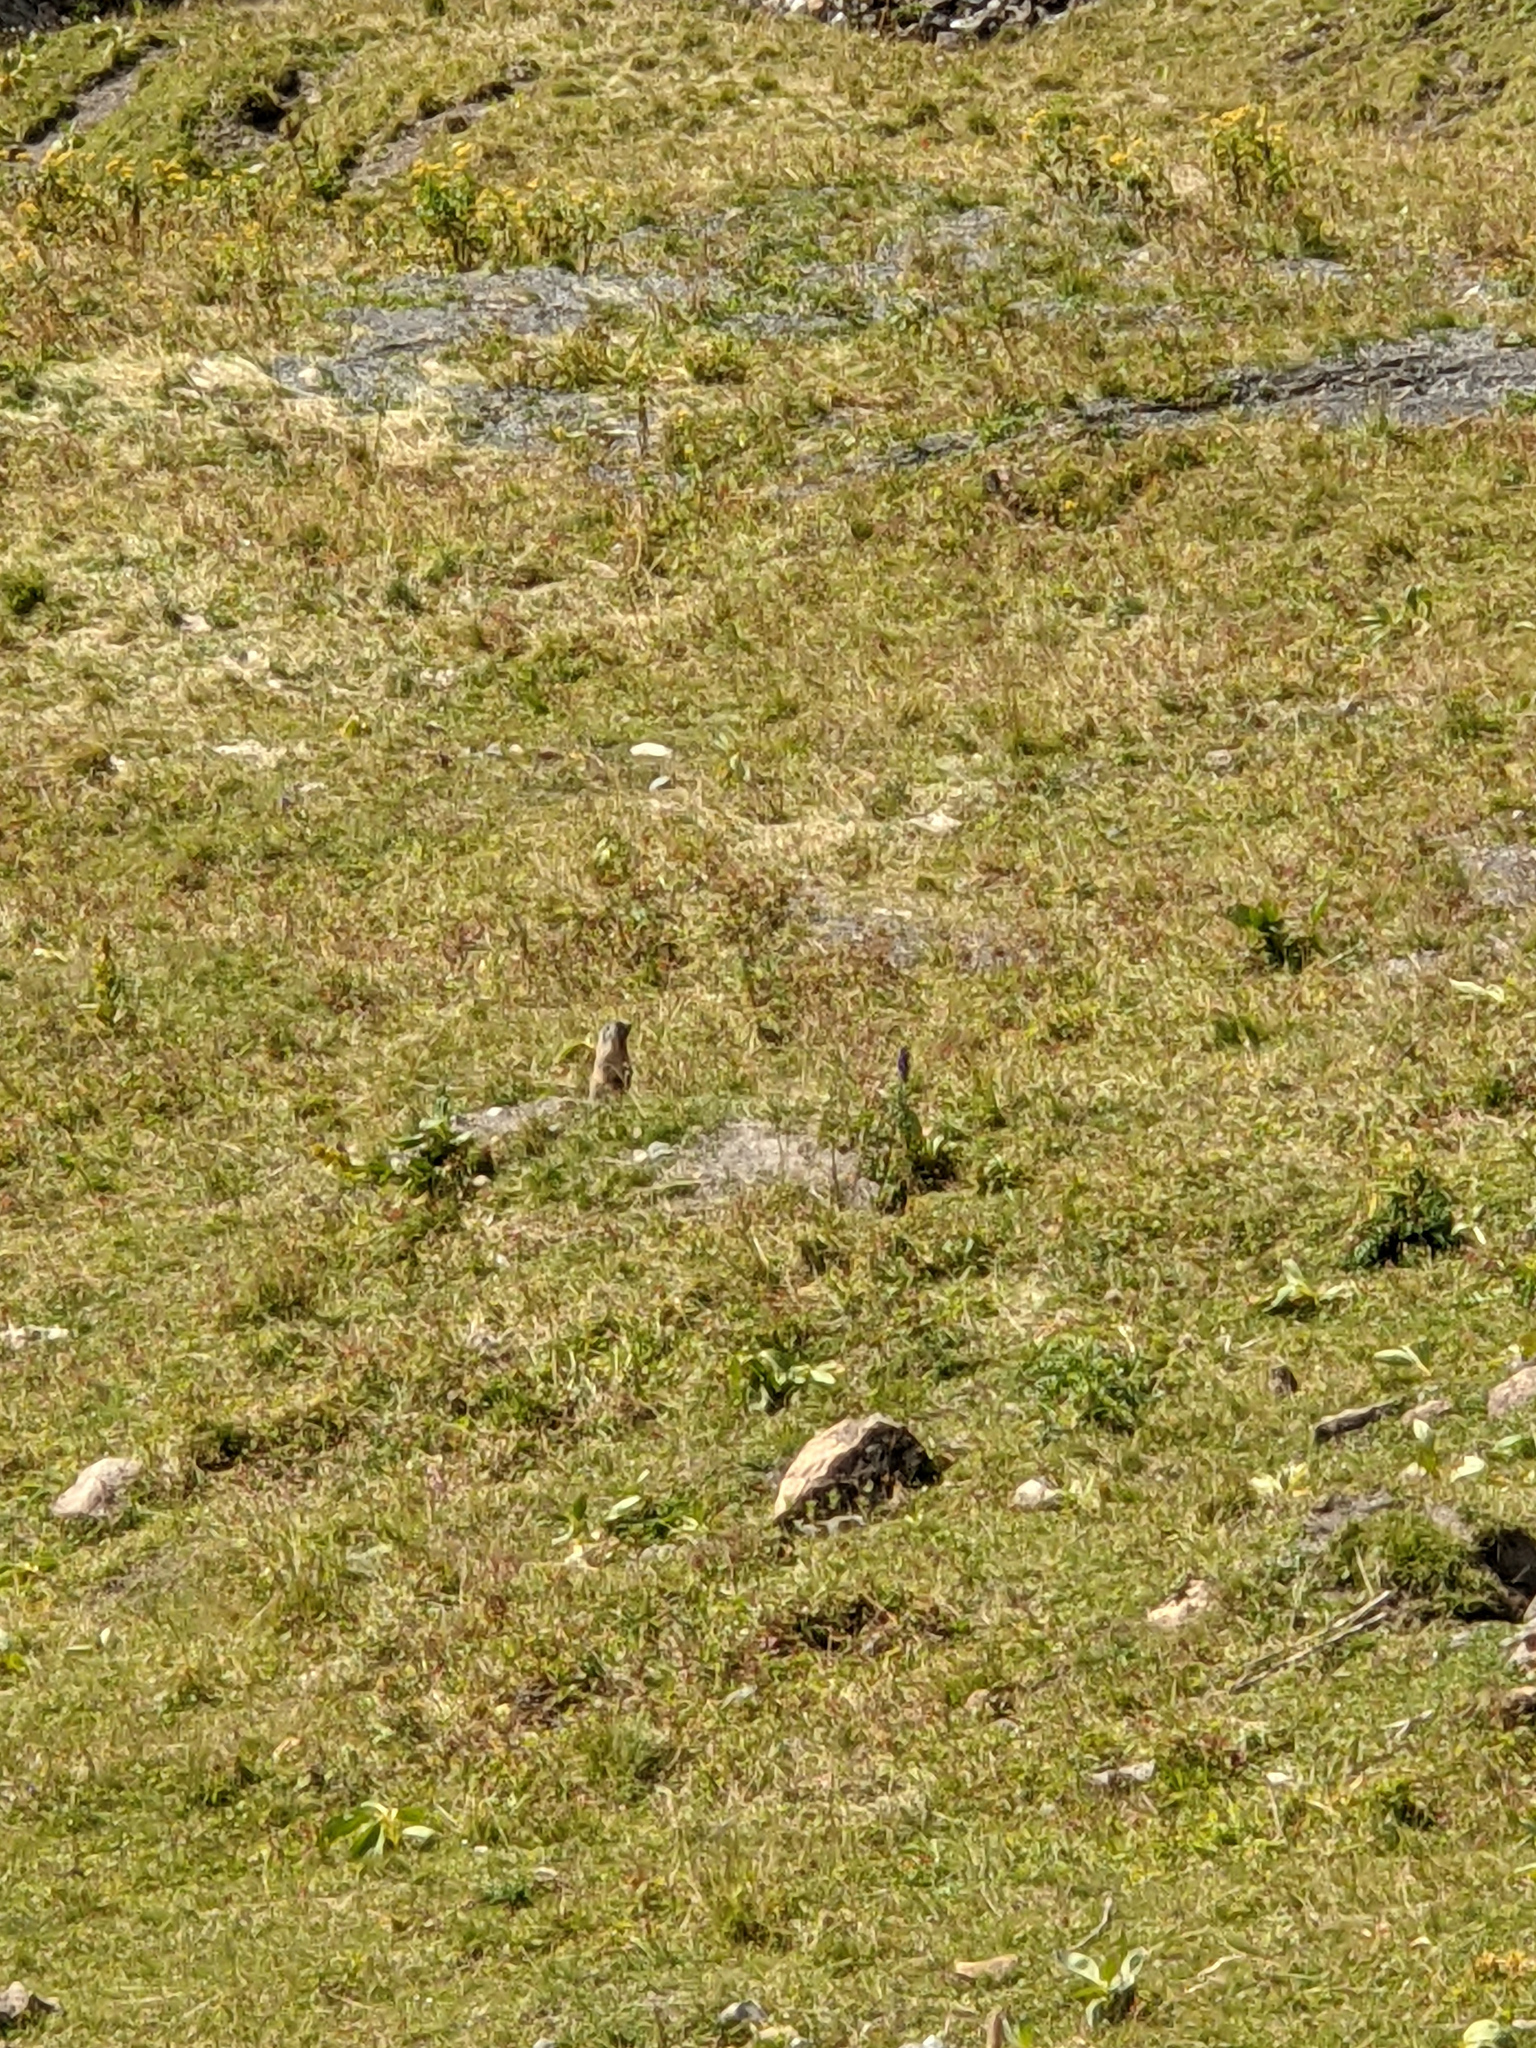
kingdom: Animalia
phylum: Chordata
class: Mammalia
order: Rodentia
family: Sciuridae
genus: Marmota
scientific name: Marmota marmota
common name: Alpine marmot
